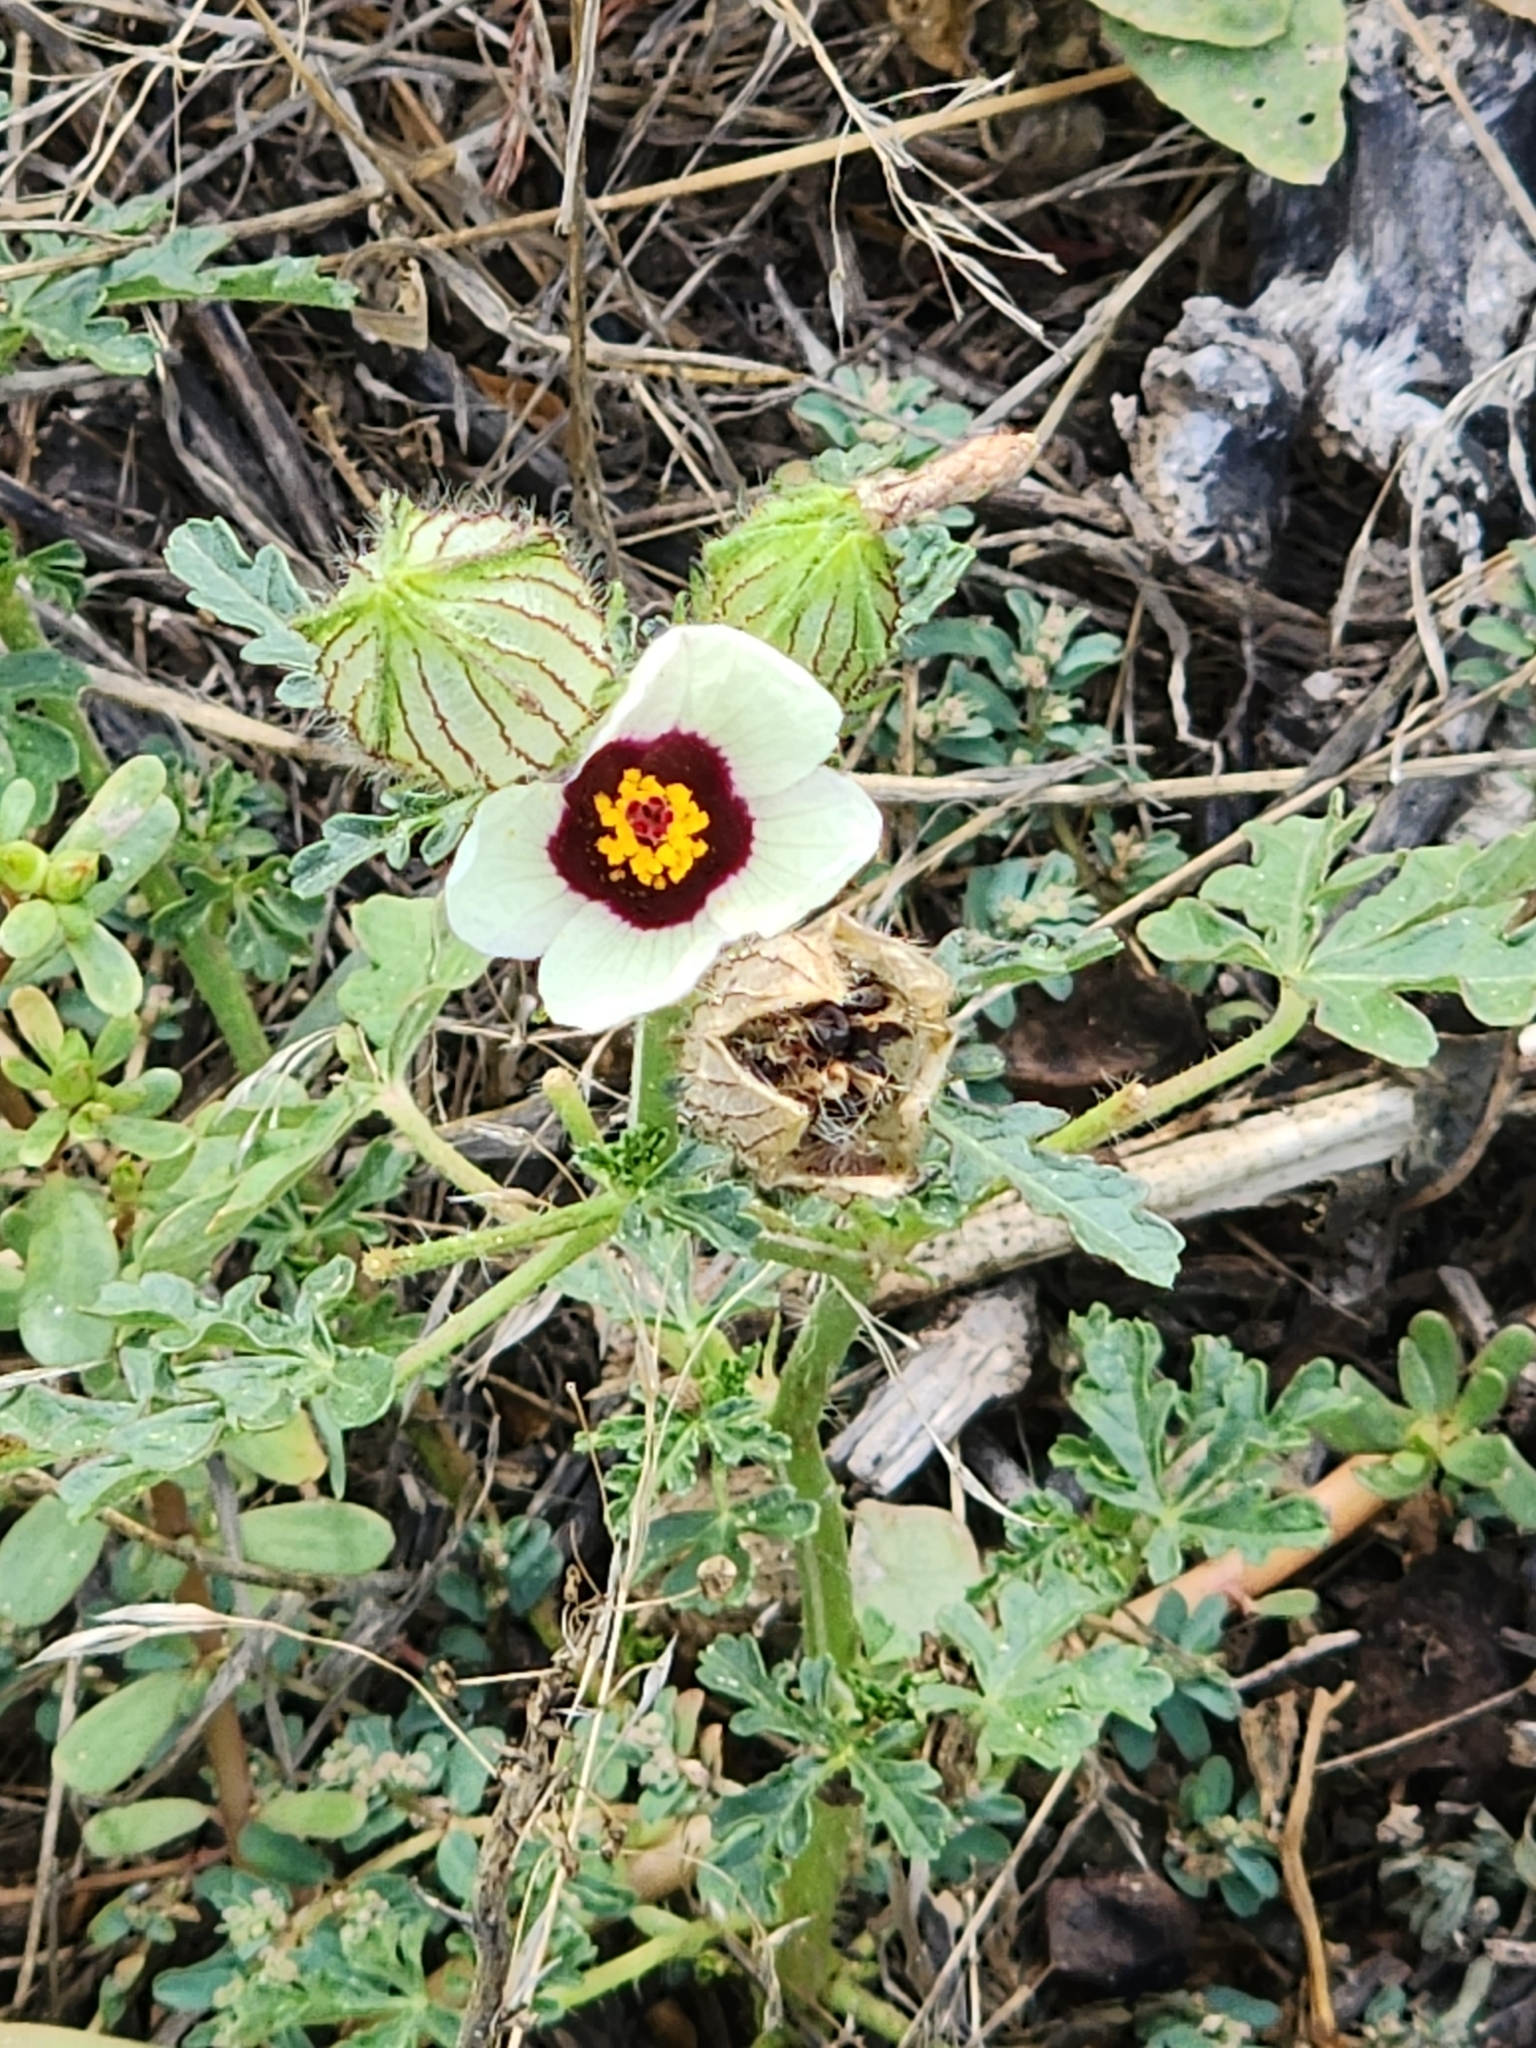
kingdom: Plantae
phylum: Tracheophyta
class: Magnoliopsida
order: Malvales
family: Malvaceae
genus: Hibiscus
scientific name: Hibiscus trionum
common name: Bladder ketmia
